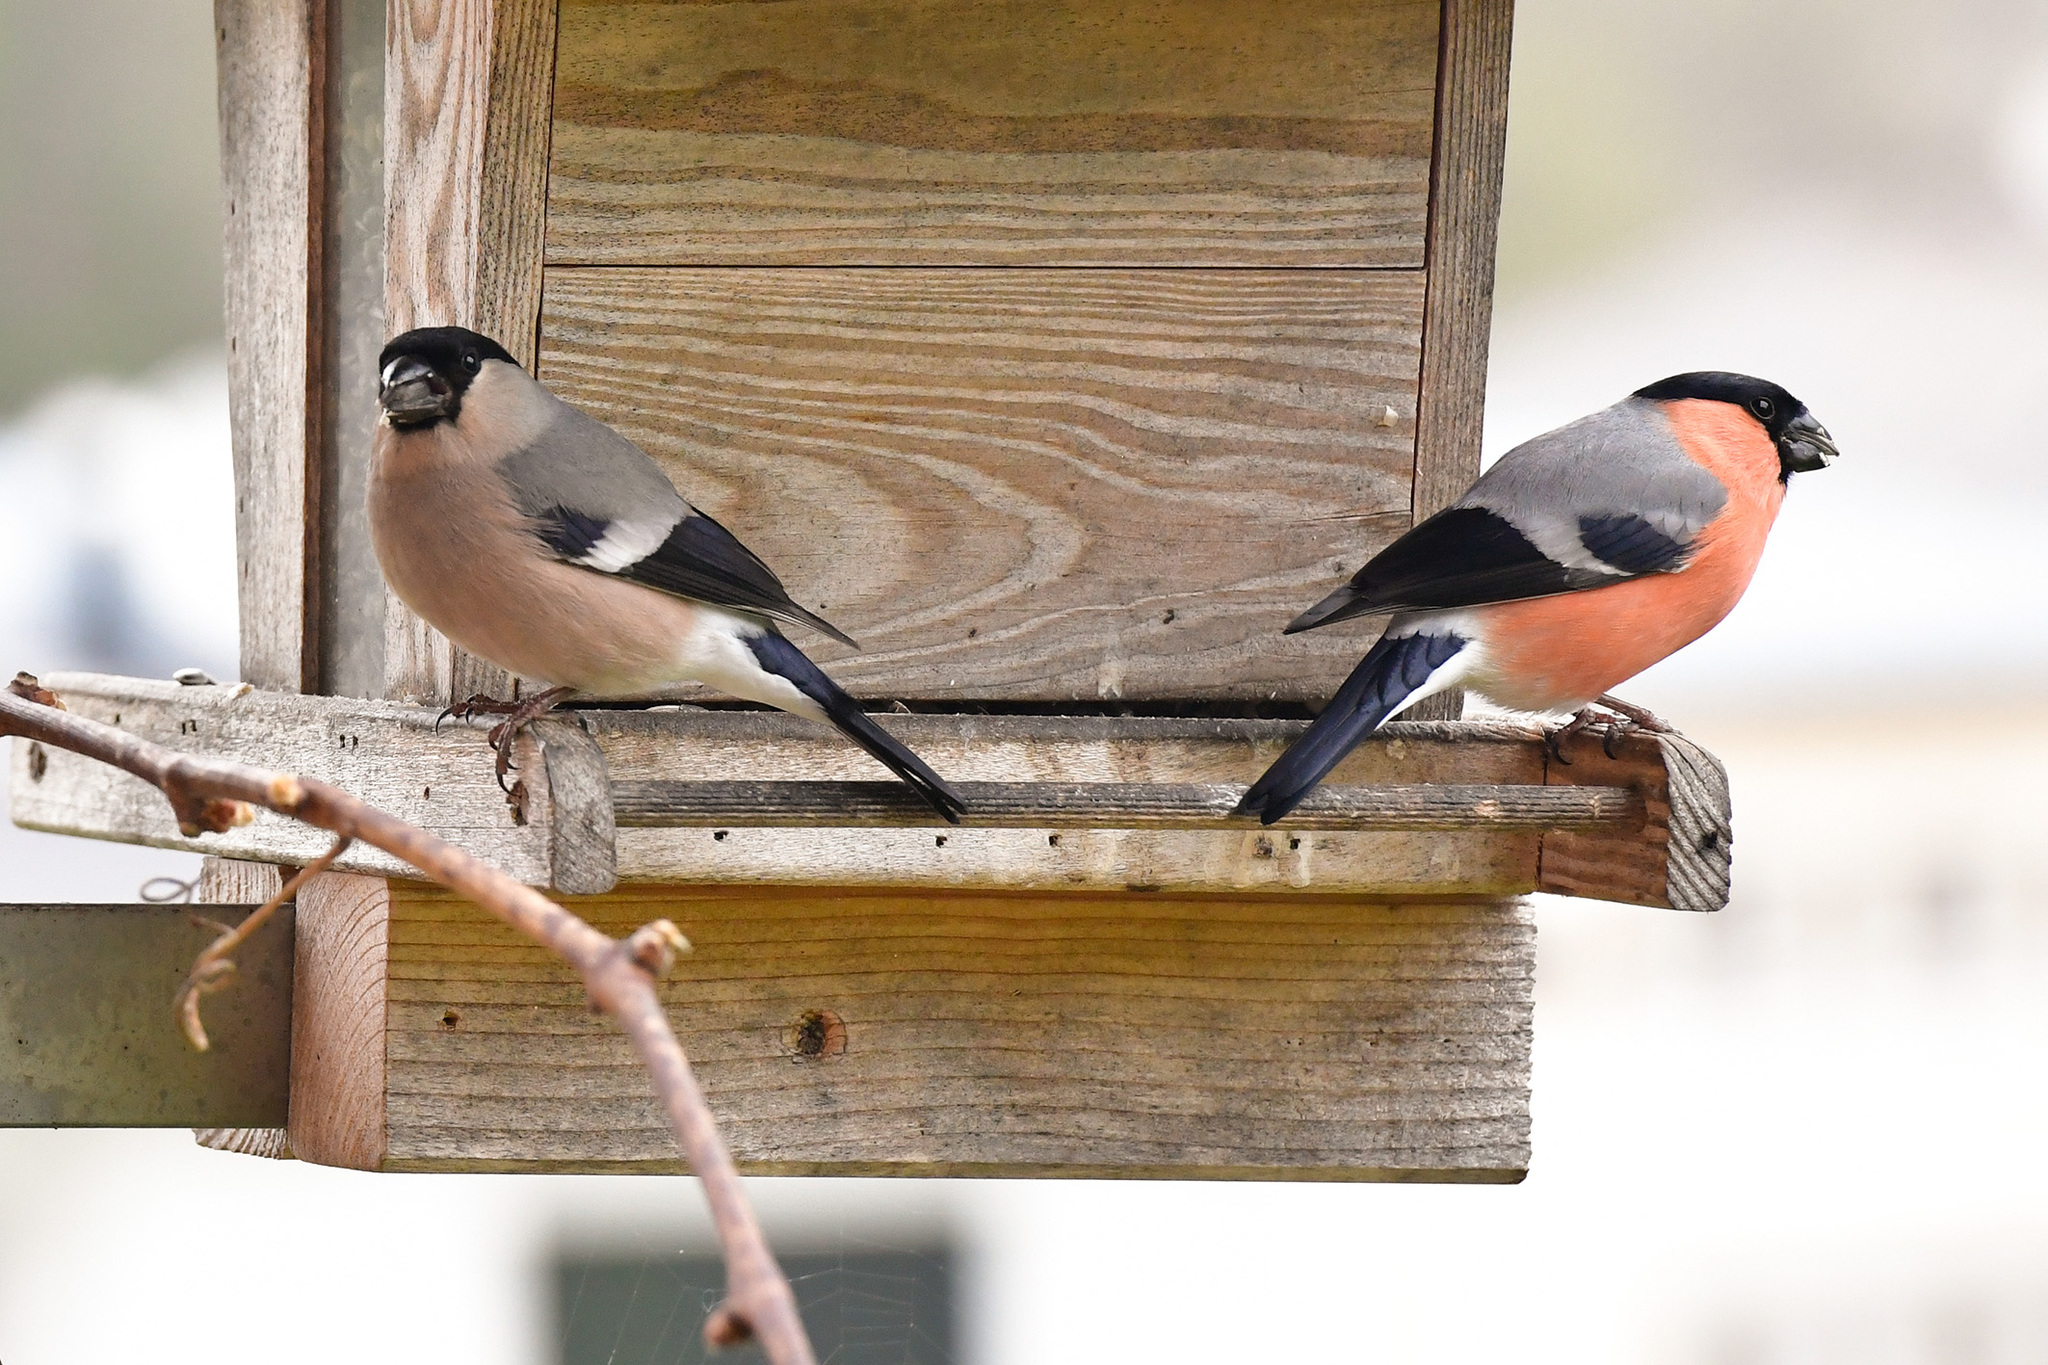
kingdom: Animalia
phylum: Chordata
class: Aves
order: Passeriformes
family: Fringillidae
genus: Pyrrhula
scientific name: Pyrrhula pyrrhula
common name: Eurasian bullfinch
